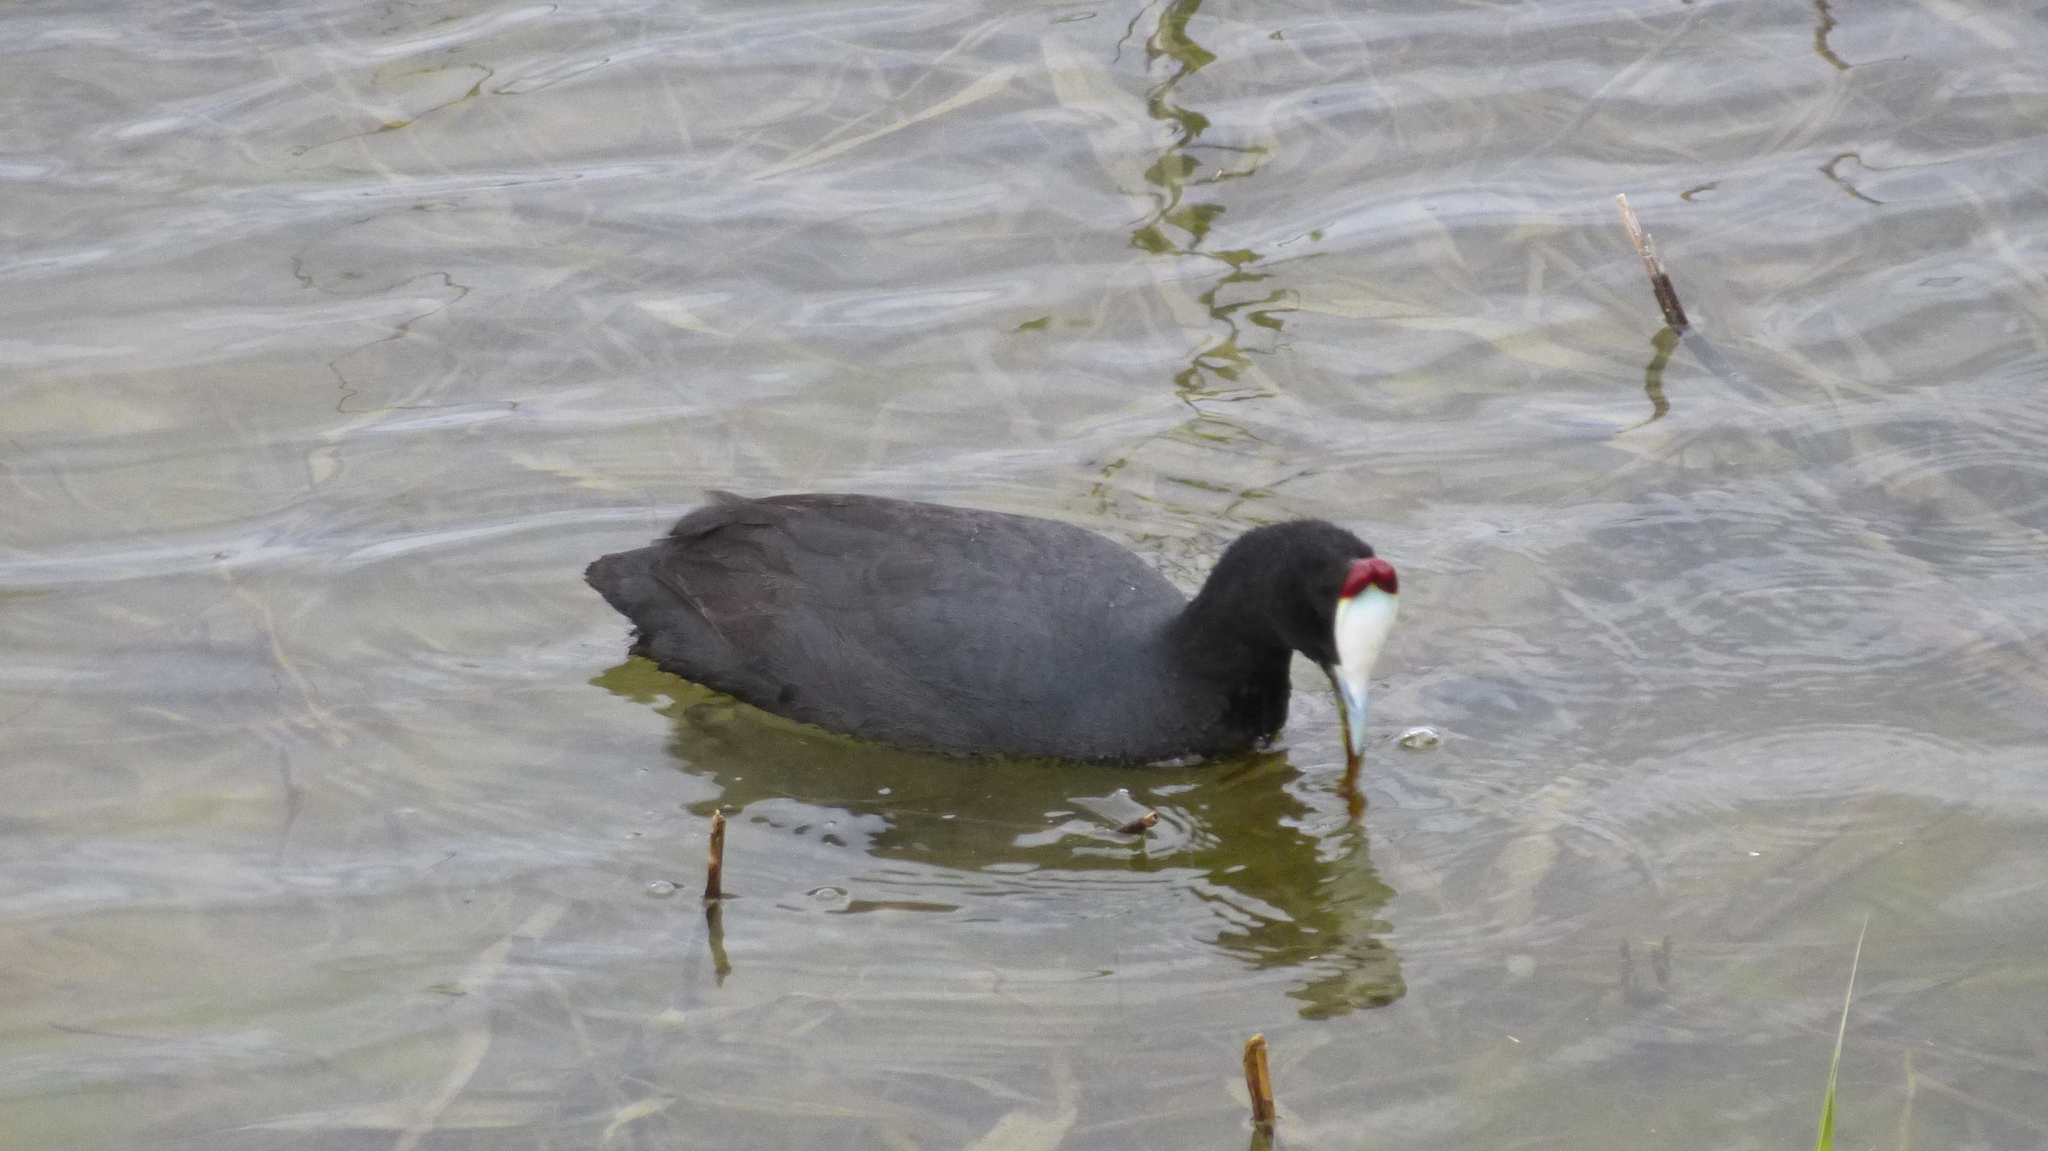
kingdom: Animalia
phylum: Chordata
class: Aves
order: Gruiformes
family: Rallidae
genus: Fulica
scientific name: Fulica cristata
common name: Red-knobbed coot
